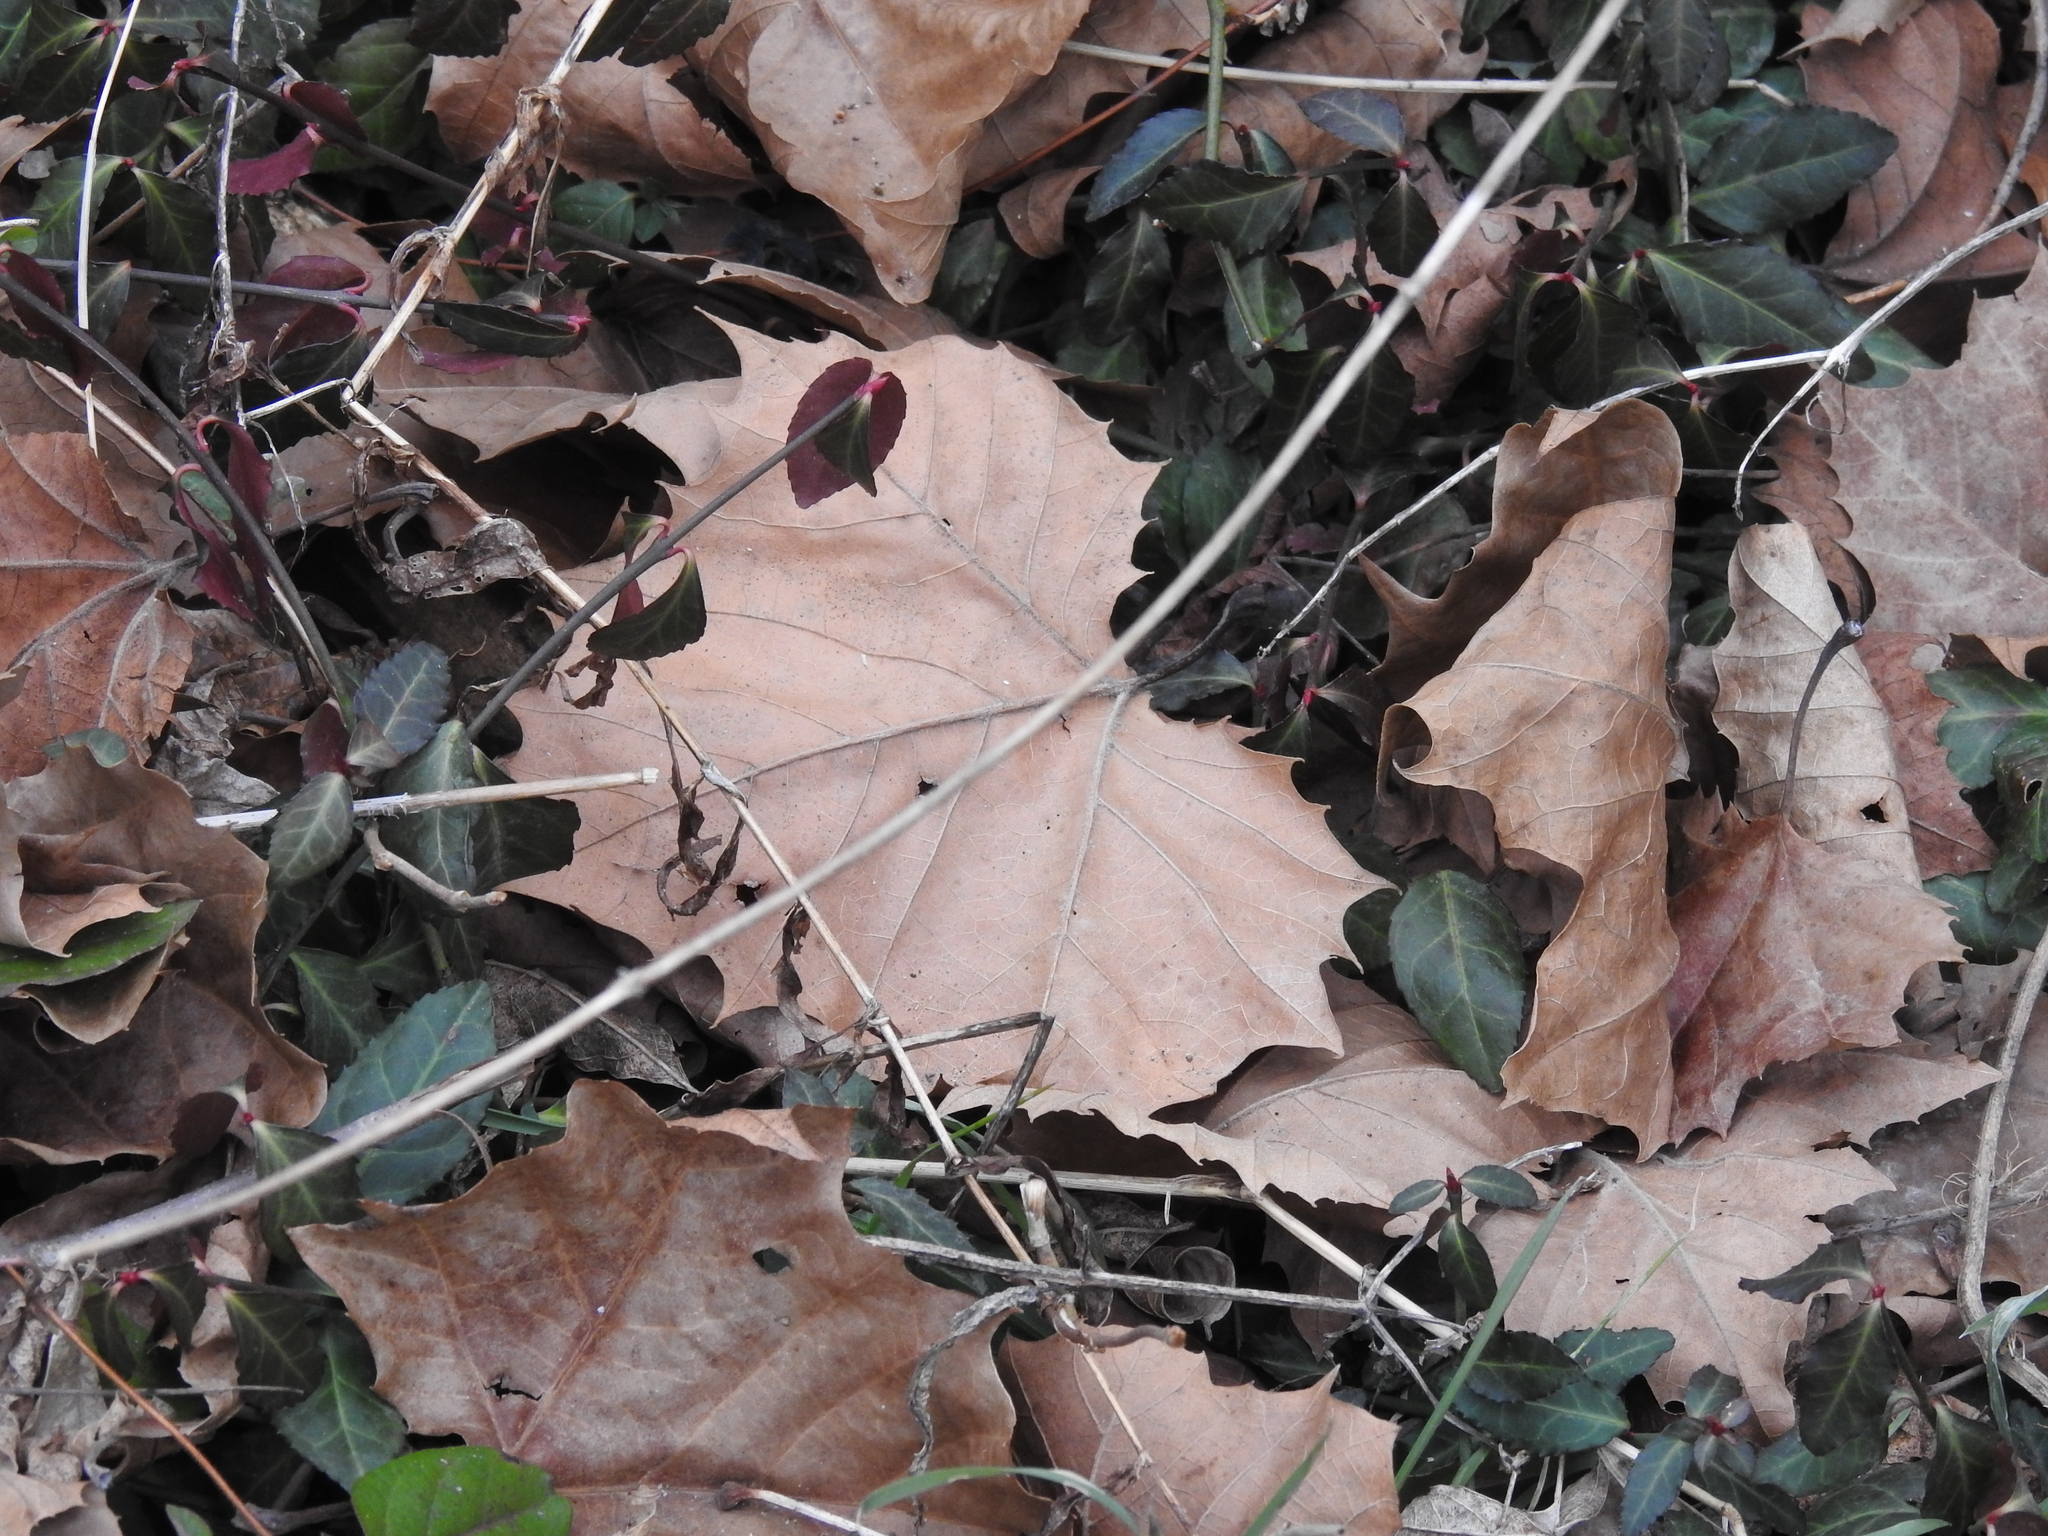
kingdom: Plantae
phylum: Tracheophyta
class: Magnoliopsida
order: Proteales
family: Platanaceae
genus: Platanus
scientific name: Platanus occidentalis
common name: American sycamore
